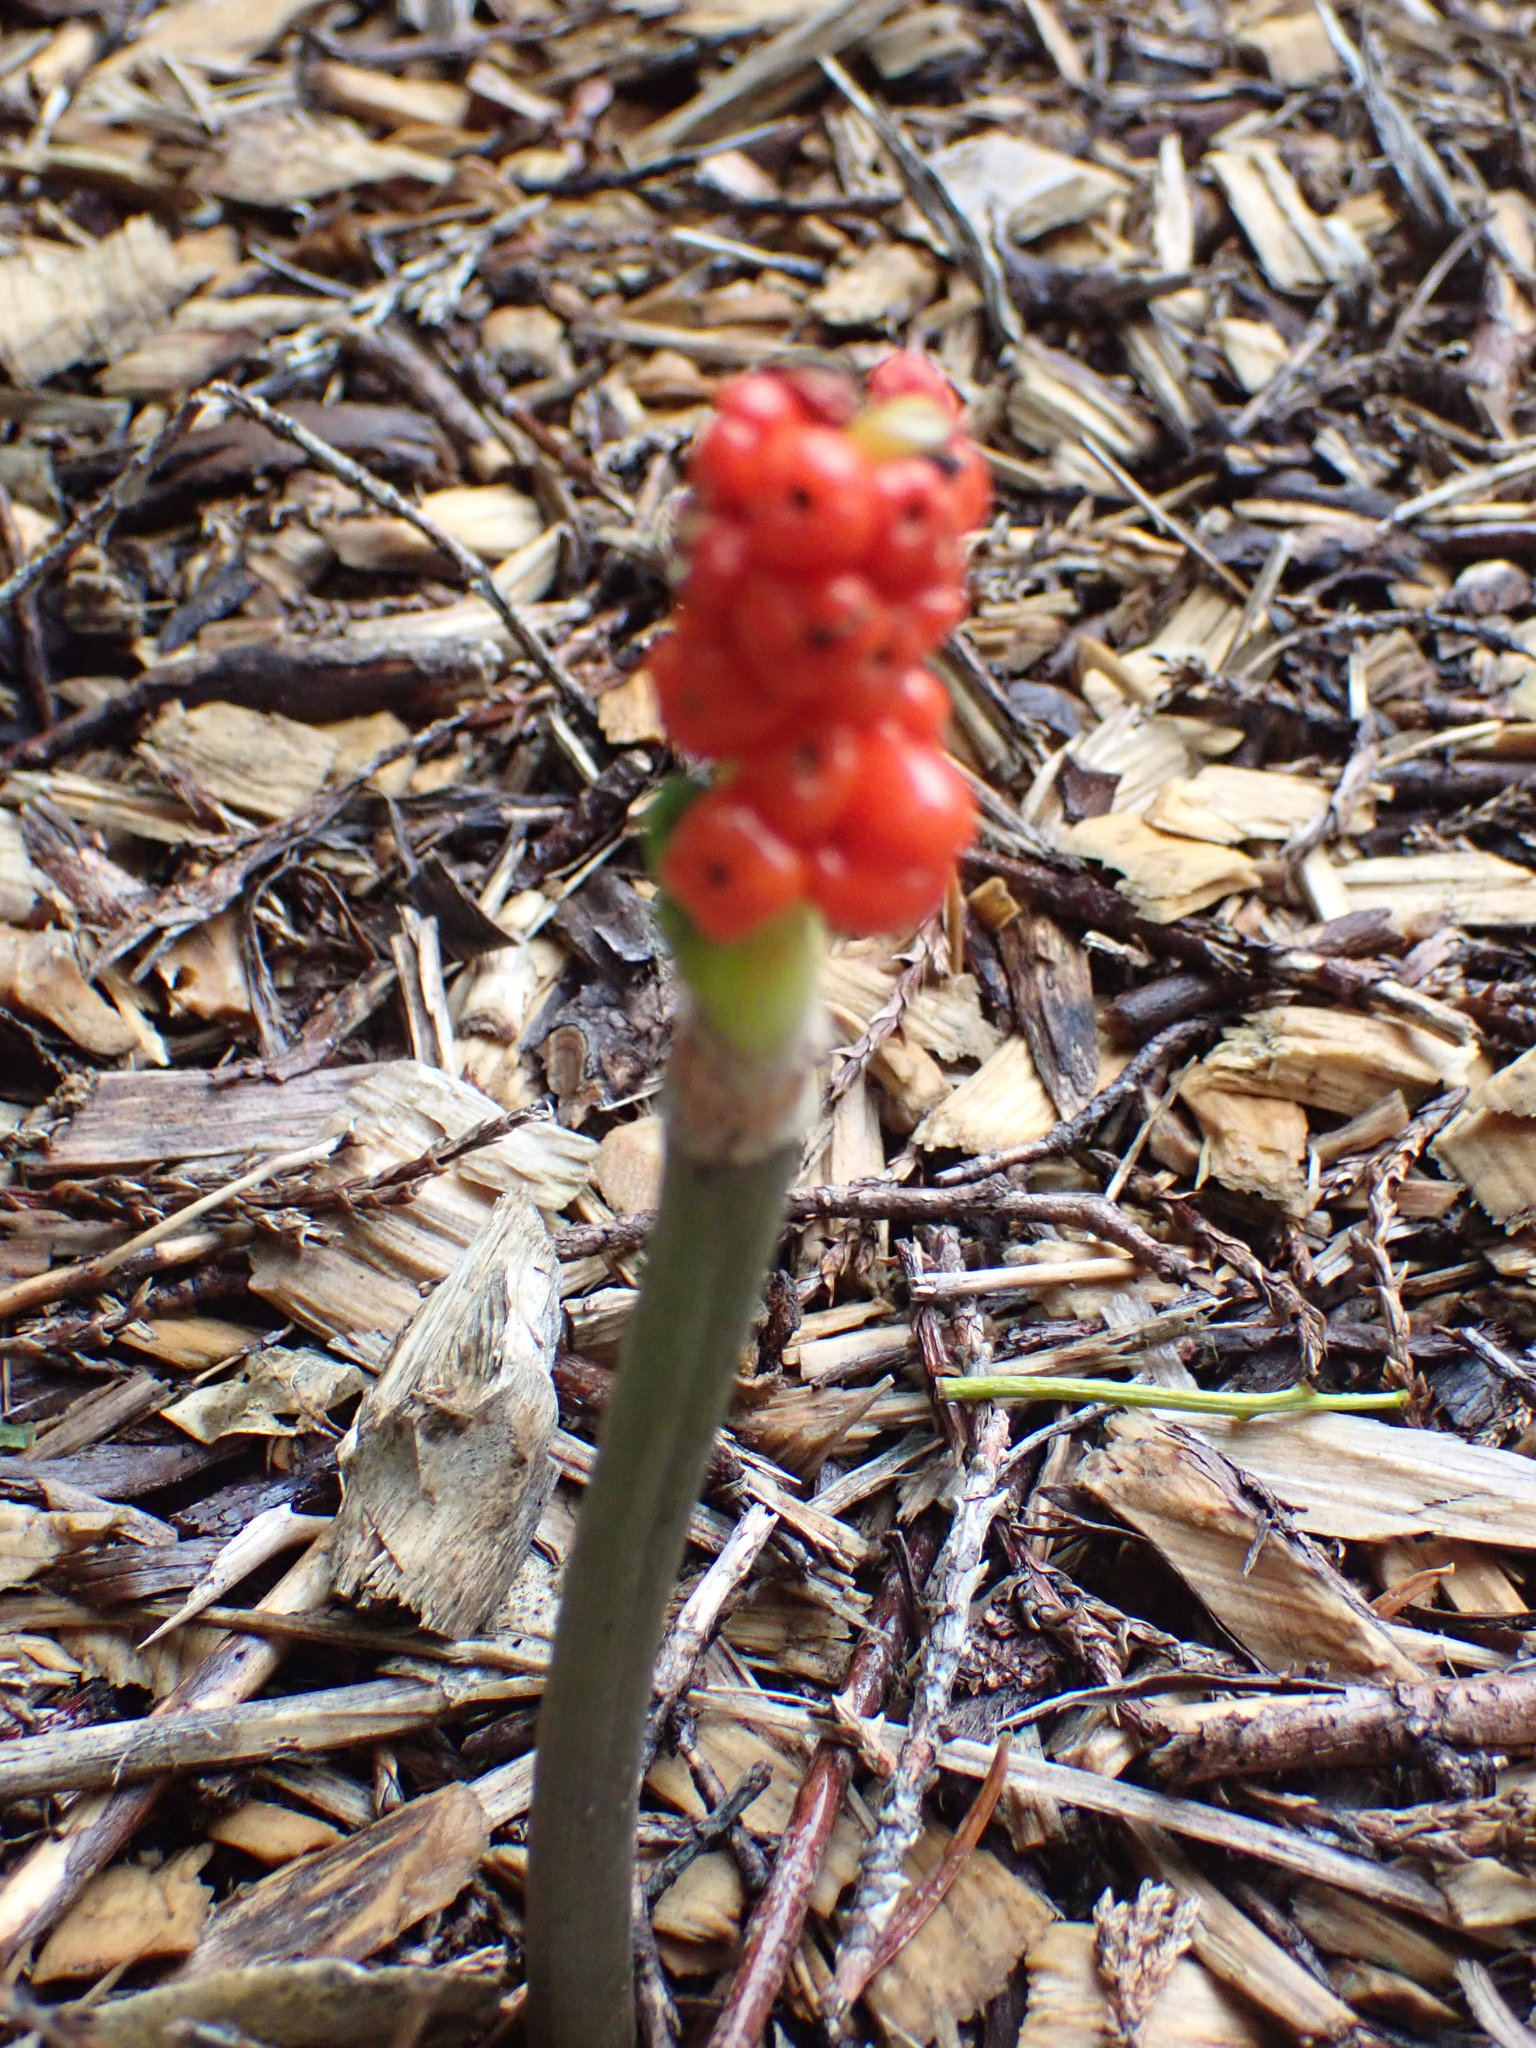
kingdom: Plantae
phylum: Tracheophyta
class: Liliopsida
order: Alismatales
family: Araceae
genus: Arum
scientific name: Arum maculatum
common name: Lords-and-ladies
